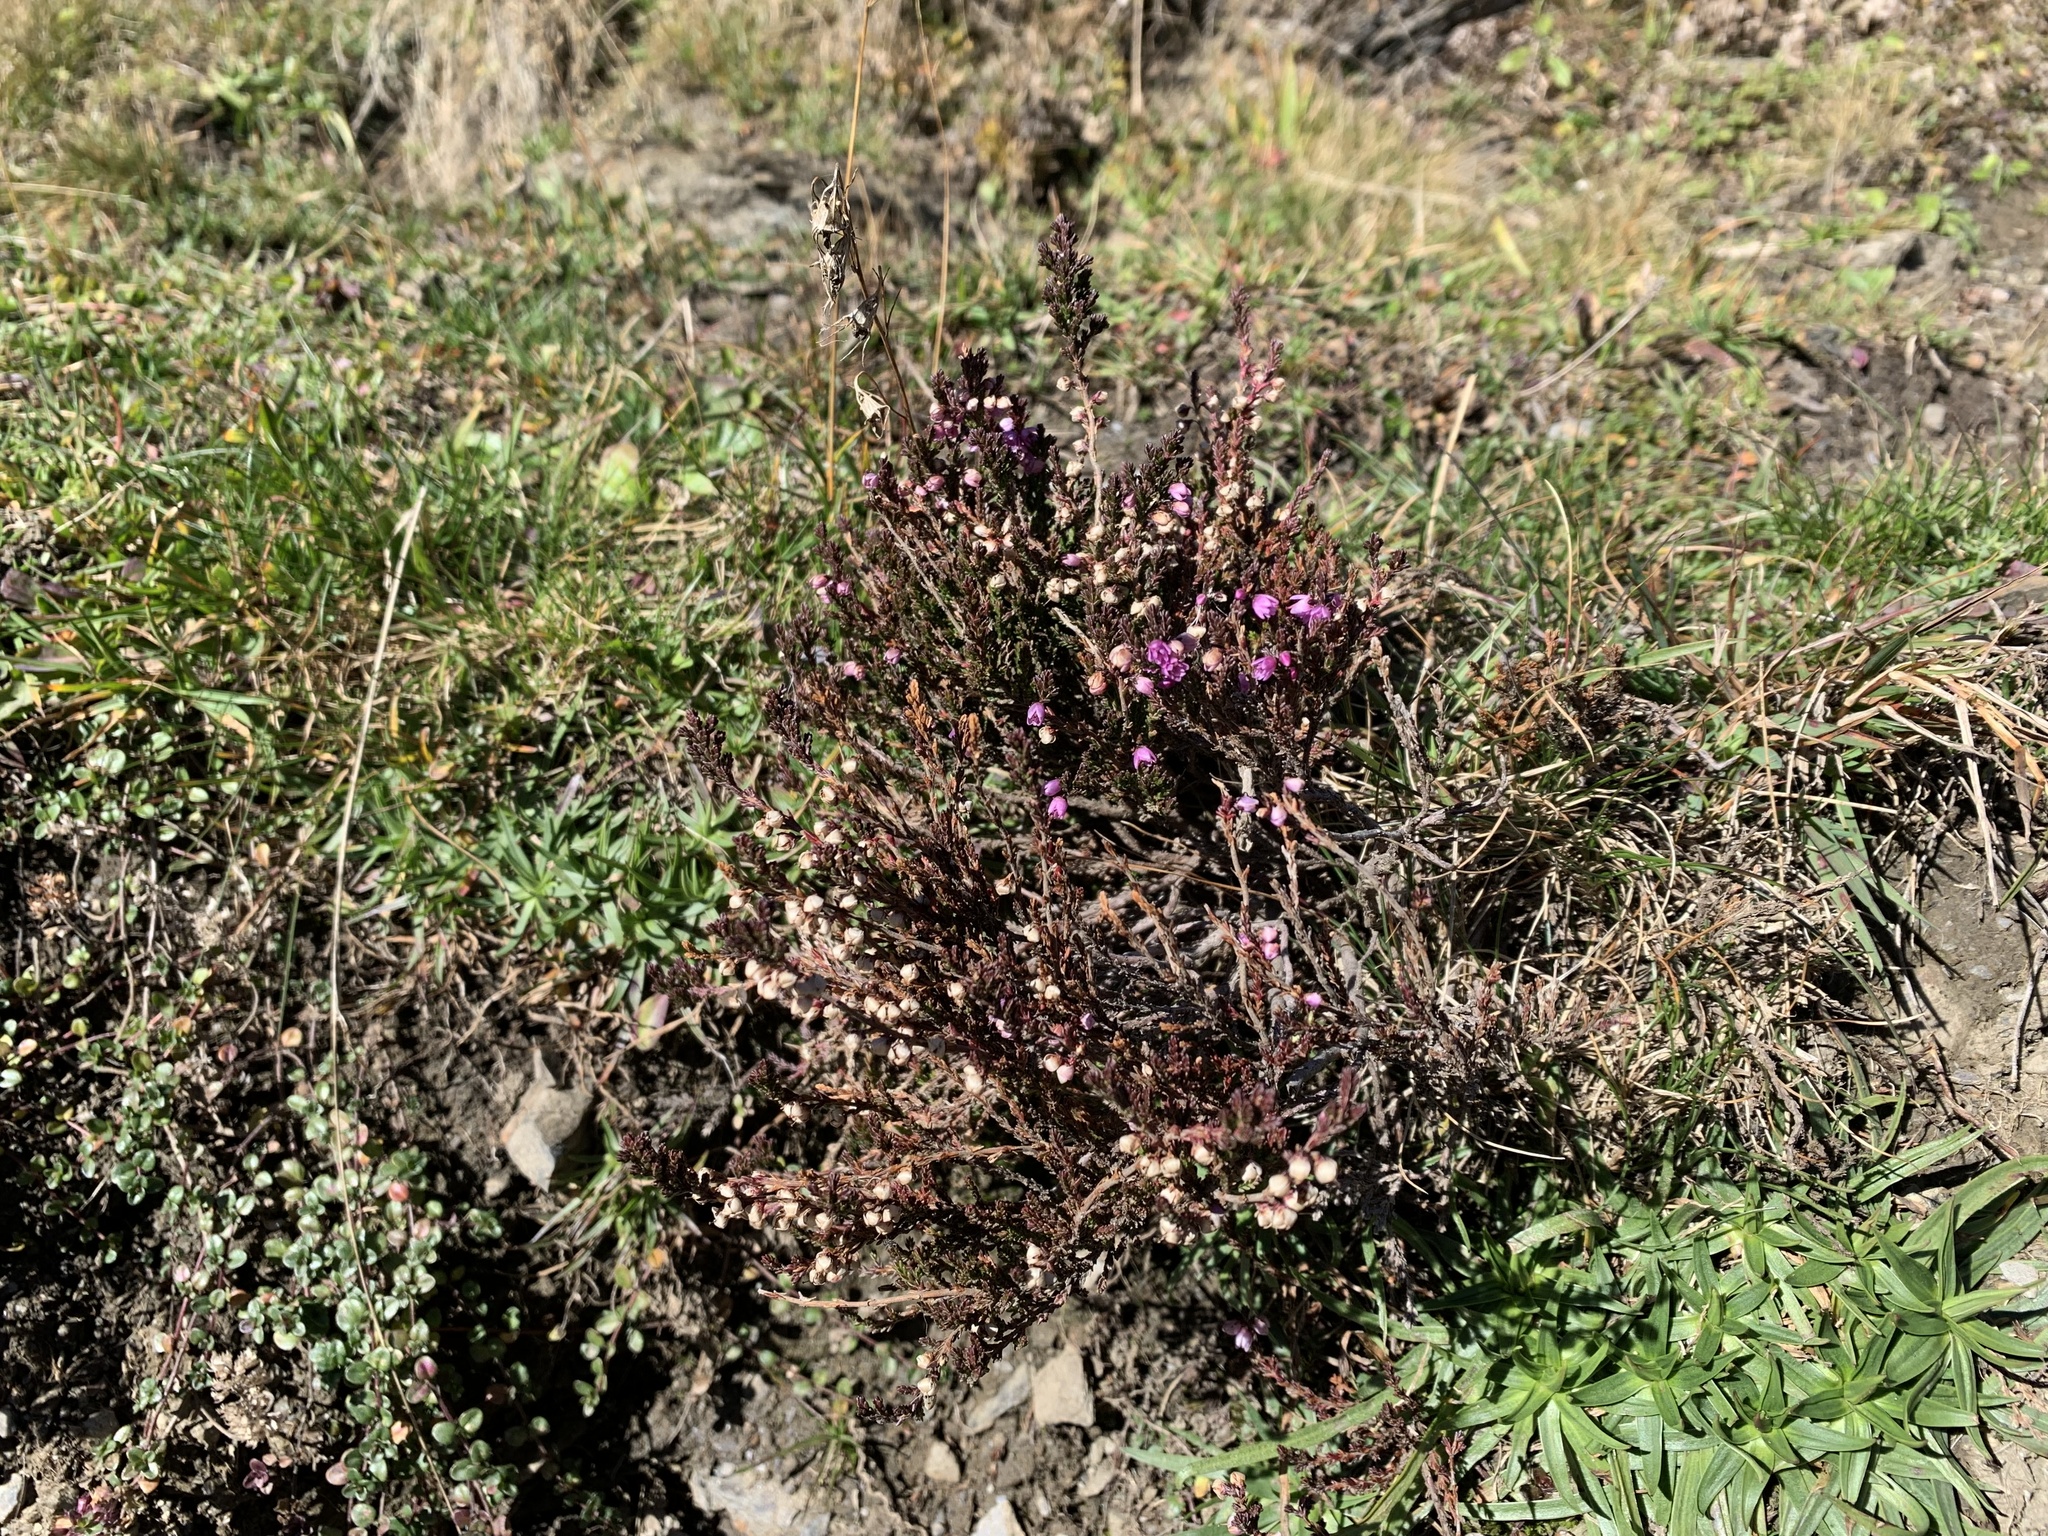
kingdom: Plantae
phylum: Tracheophyta
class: Magnoliopsida
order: Ericales
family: Ericaceae
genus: Calluna
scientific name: Calluna vulgaris
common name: Heather
